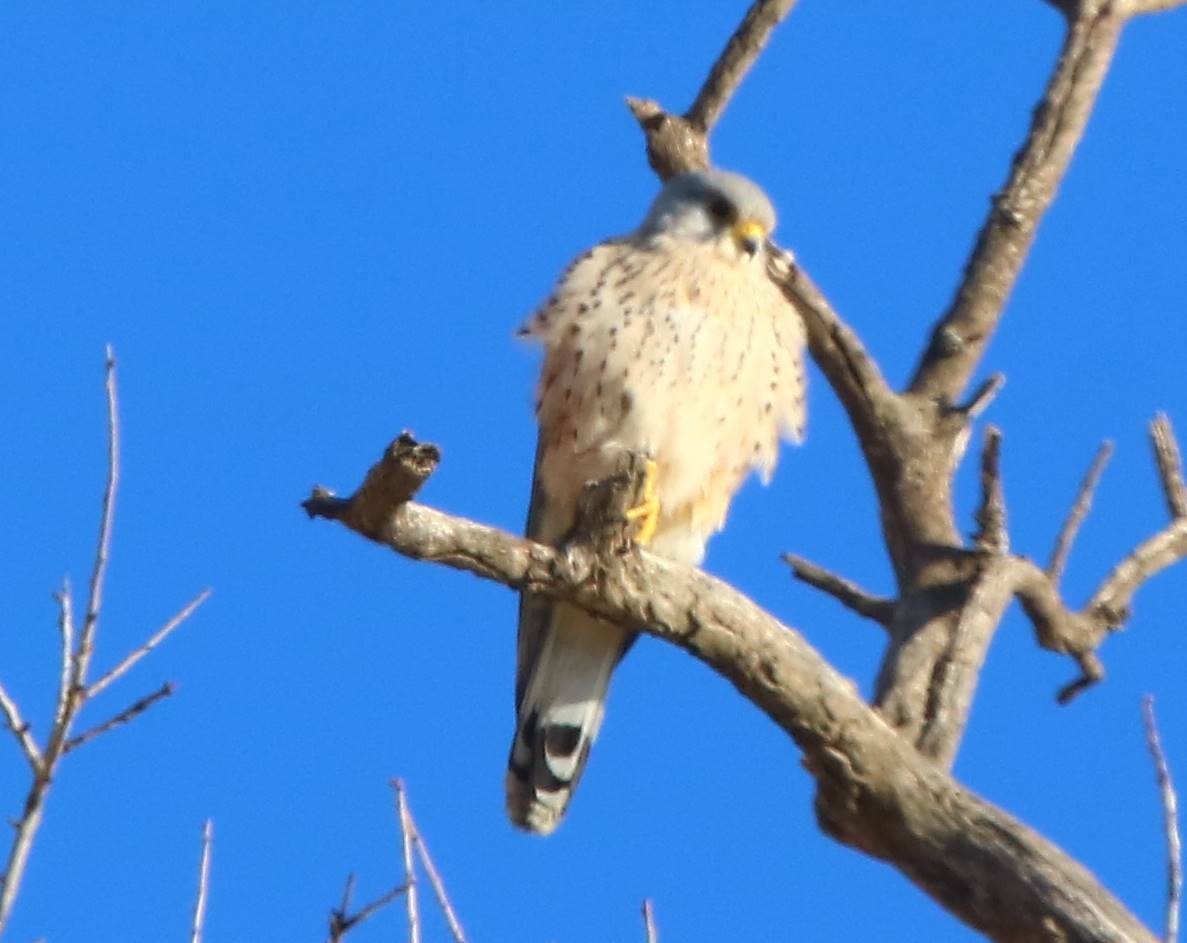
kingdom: Animalia
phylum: Chordata
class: Aves
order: Falconiformes
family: Falconidae
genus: Falco
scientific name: Falco tinnunculus
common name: Common kestrel
